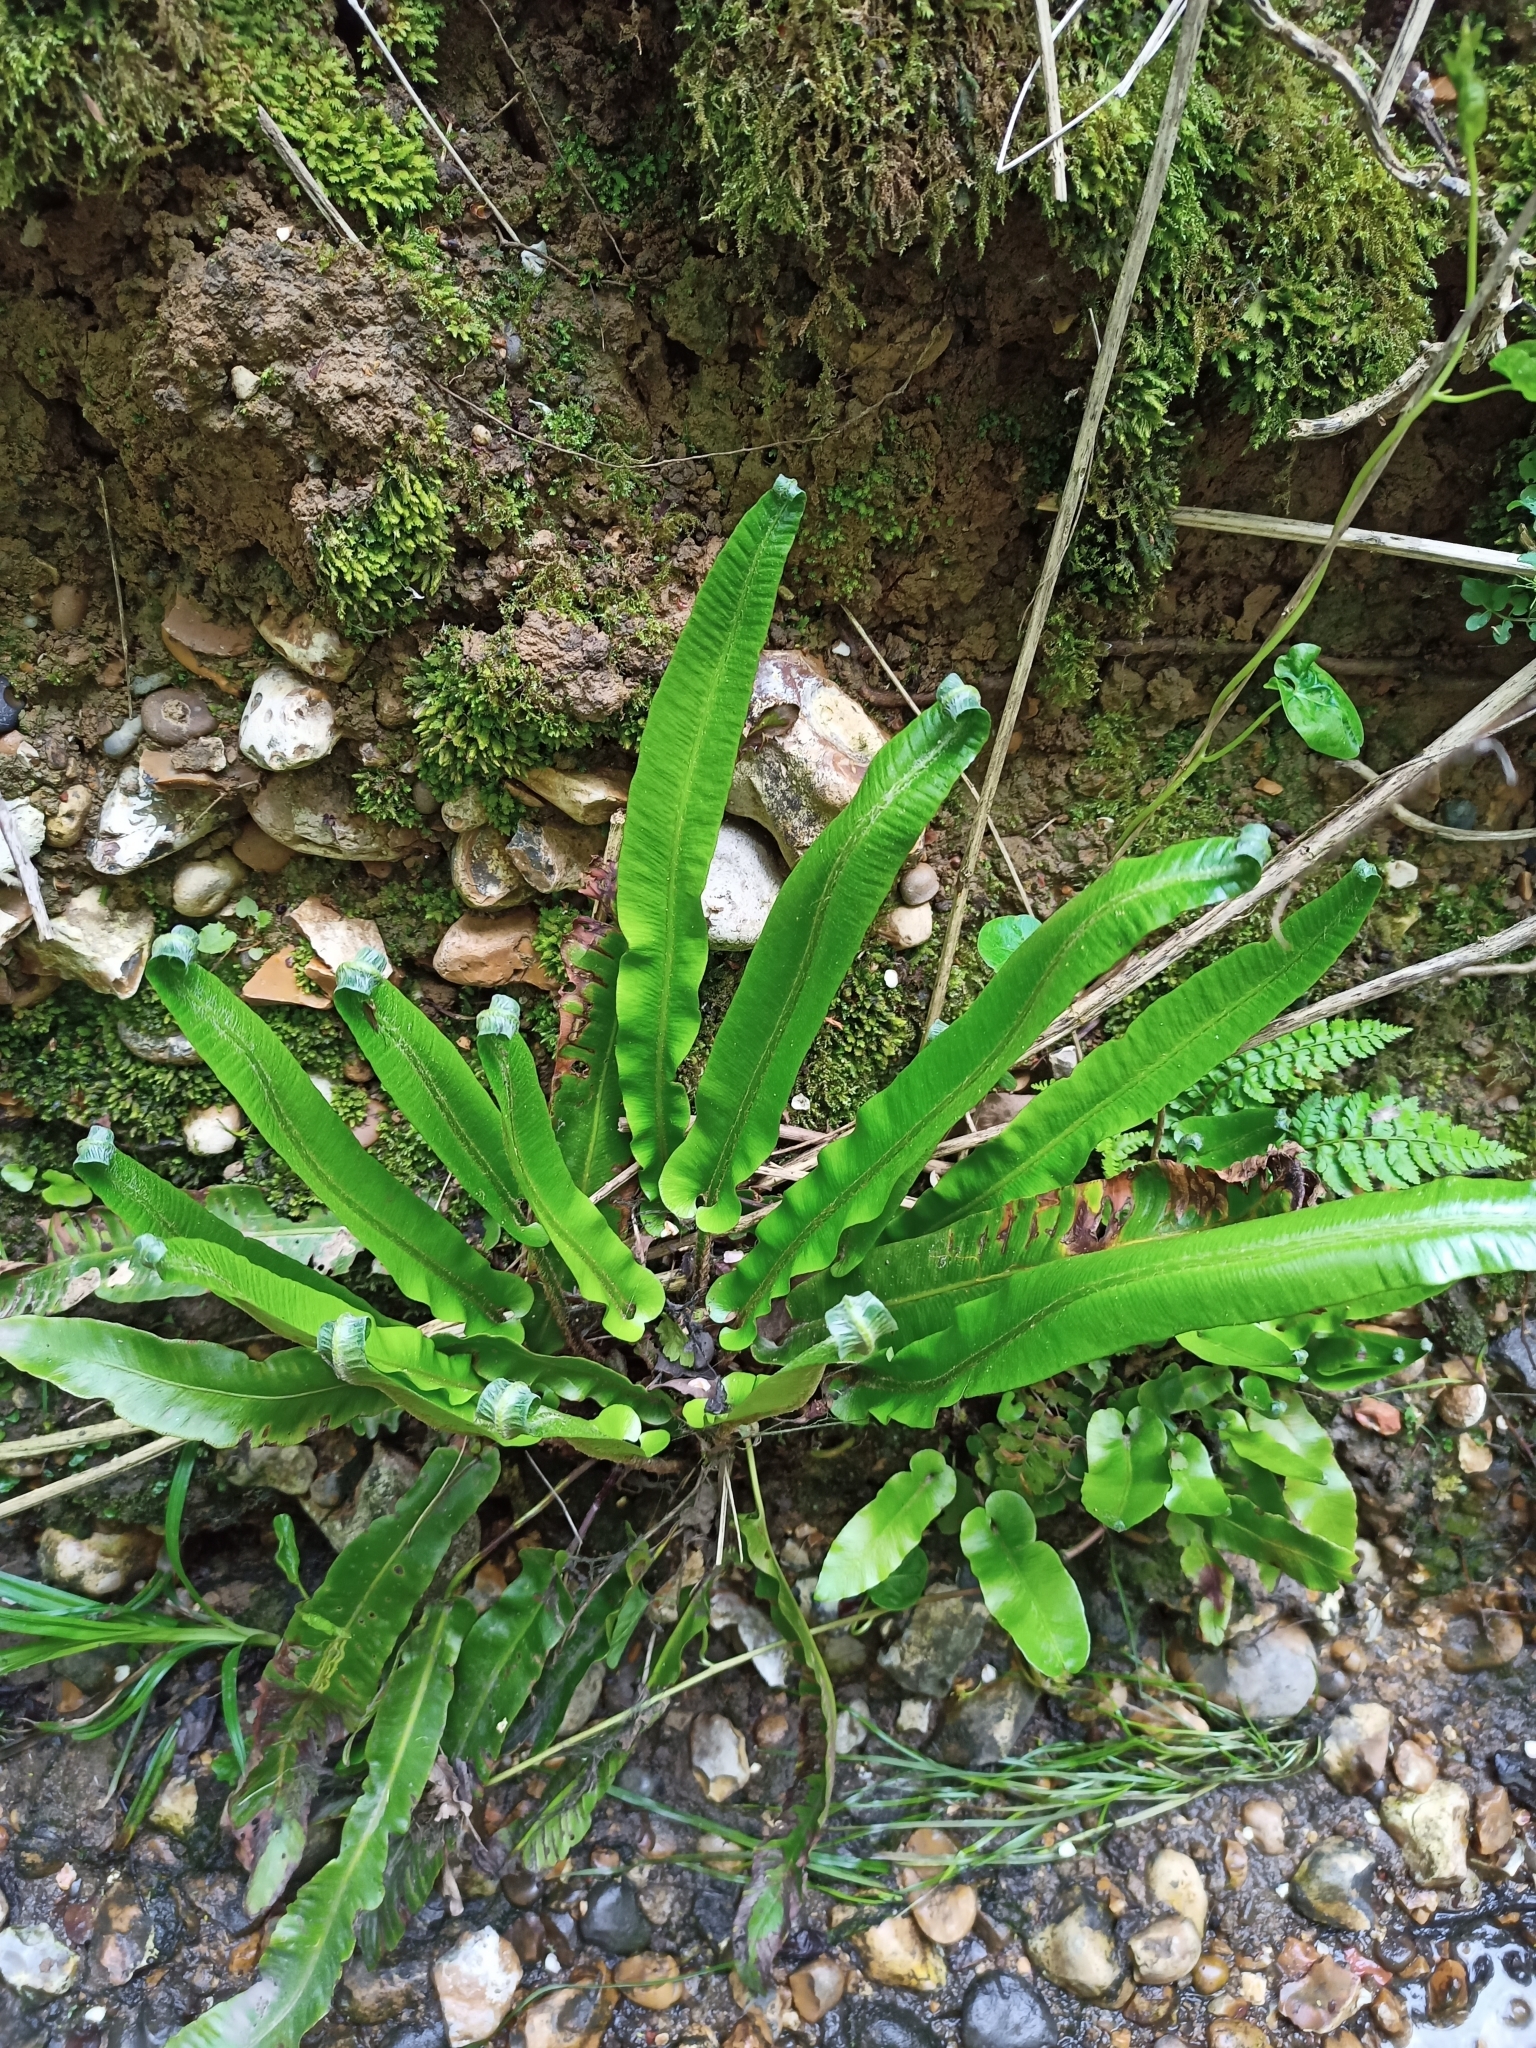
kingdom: Plantae
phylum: Tracheophyta
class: Polypodiopsida
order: Polypodiales
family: Aspleniaceae
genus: Asplenium
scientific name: Asplenium scolopendrium
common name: Hart's-tongue fern
